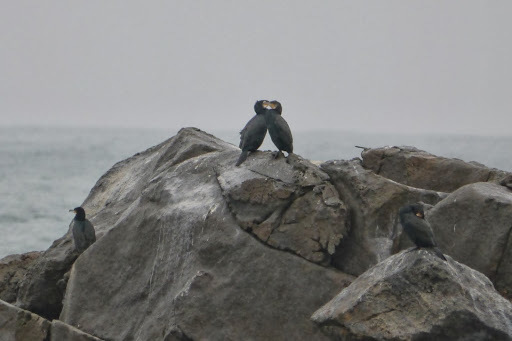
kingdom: Animalia
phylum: Chordata
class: Aves
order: Suliformes
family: Phalacrocoracidae
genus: Phalacrocorax
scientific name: Phalacrocorax carbo
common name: Great cormorant
